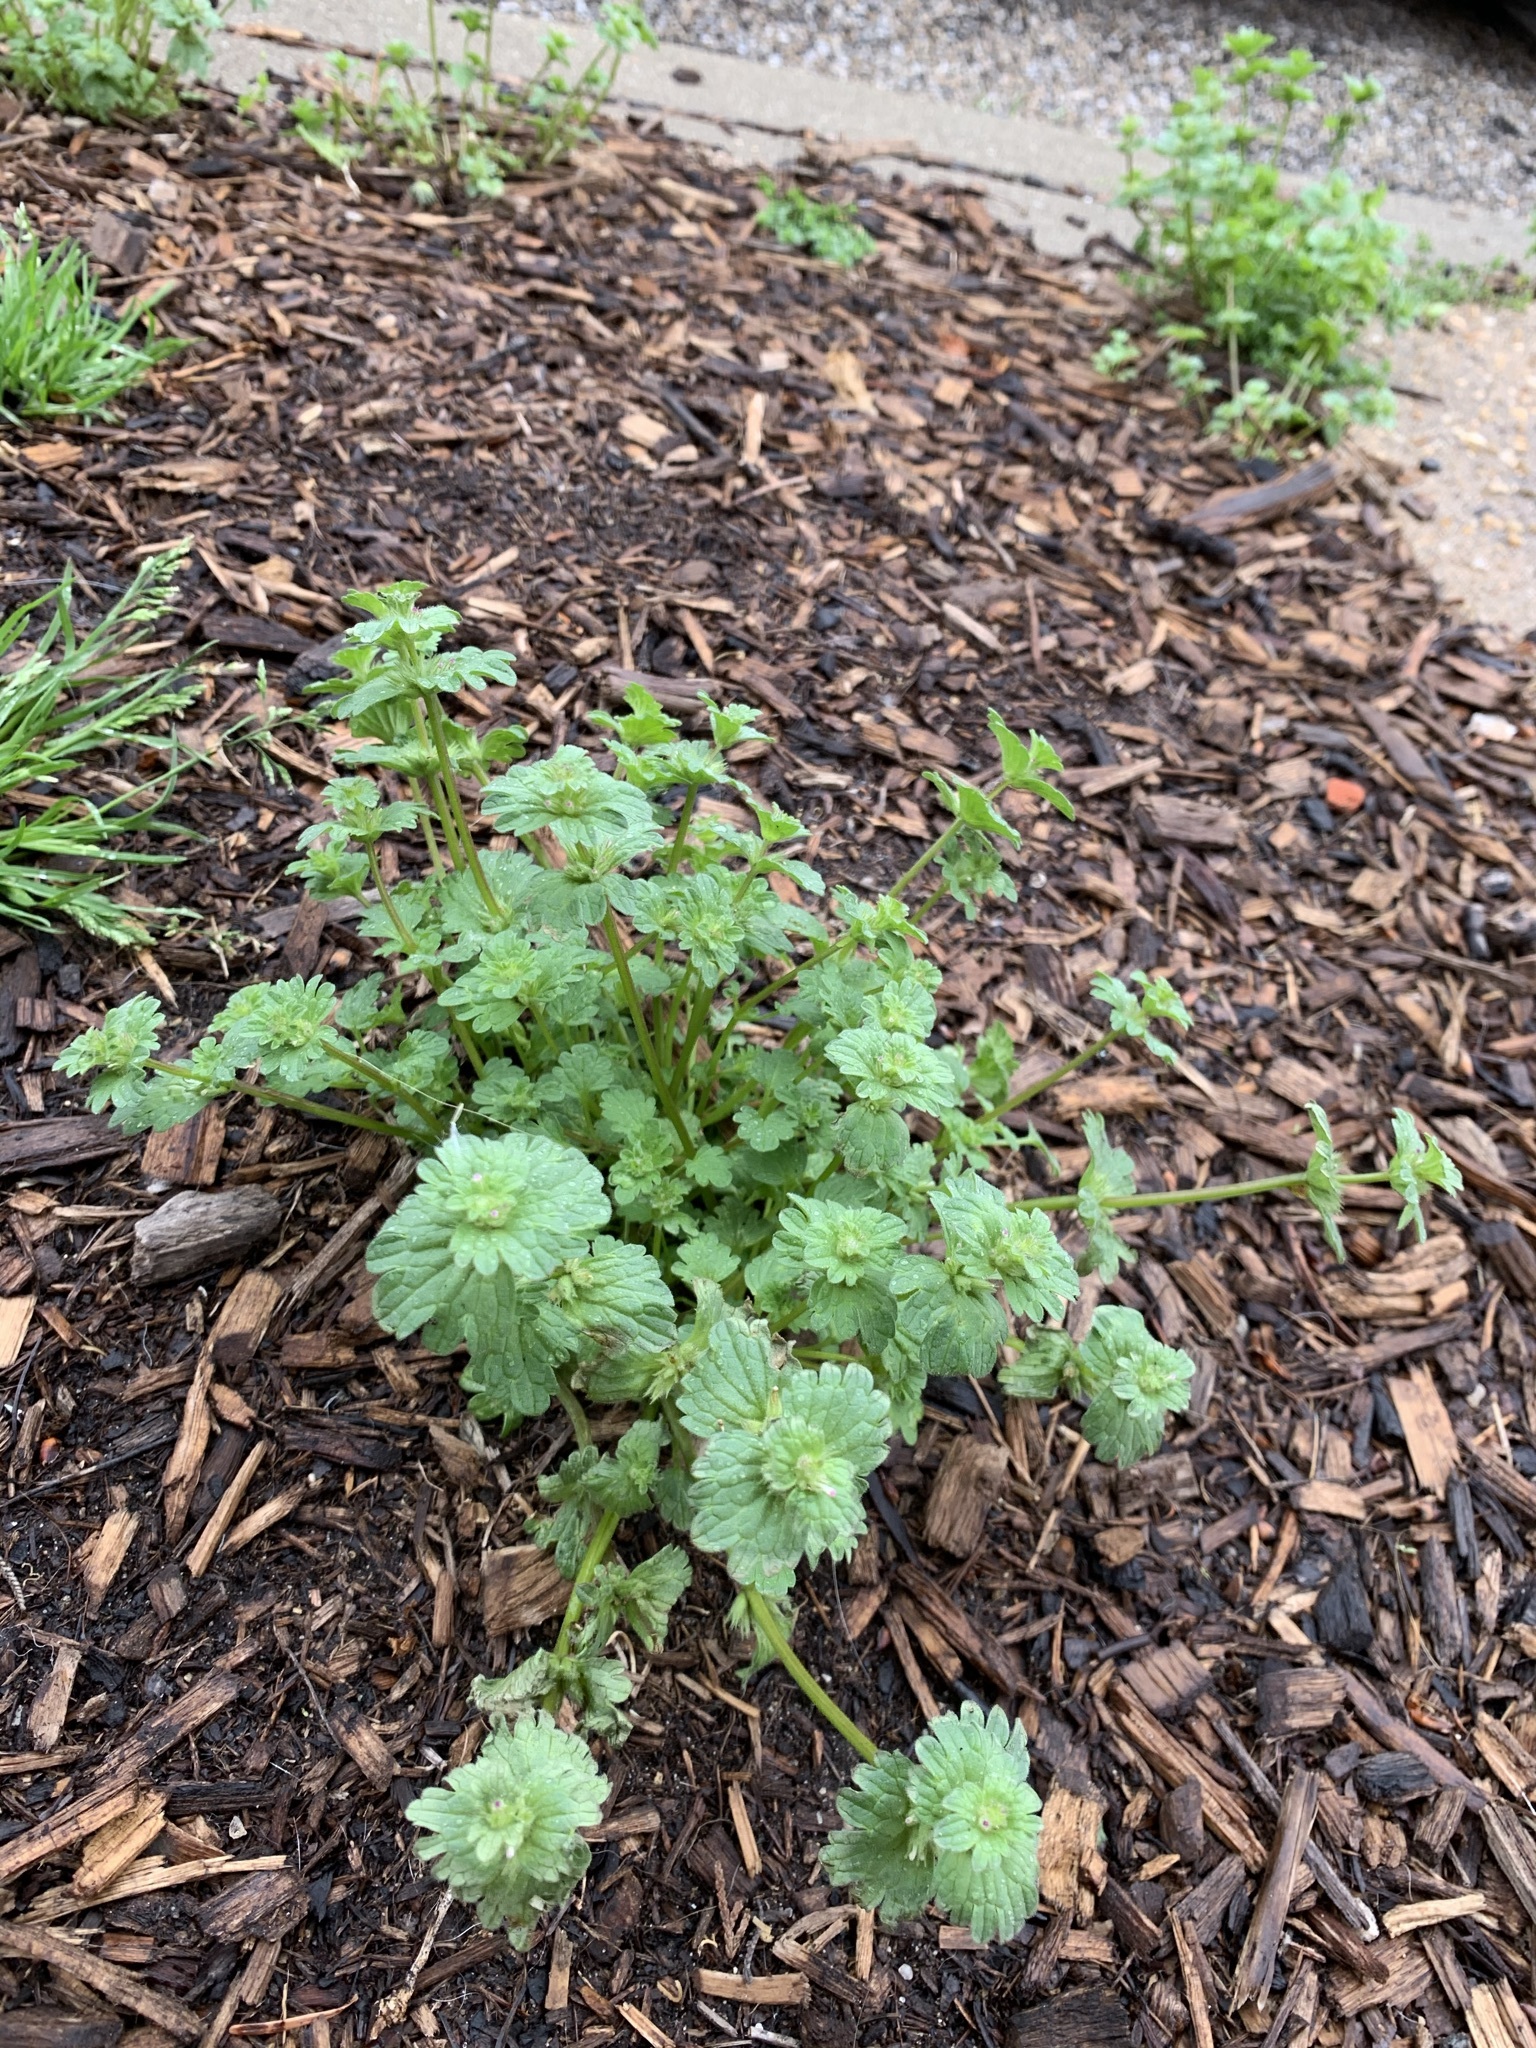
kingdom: Plantae
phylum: Tracheophyta
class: Magnoliopsida
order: Lamiales
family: Lamiaceae
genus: Lamium
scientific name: Lamium amplexicaule
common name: Henbit dead-nettle
